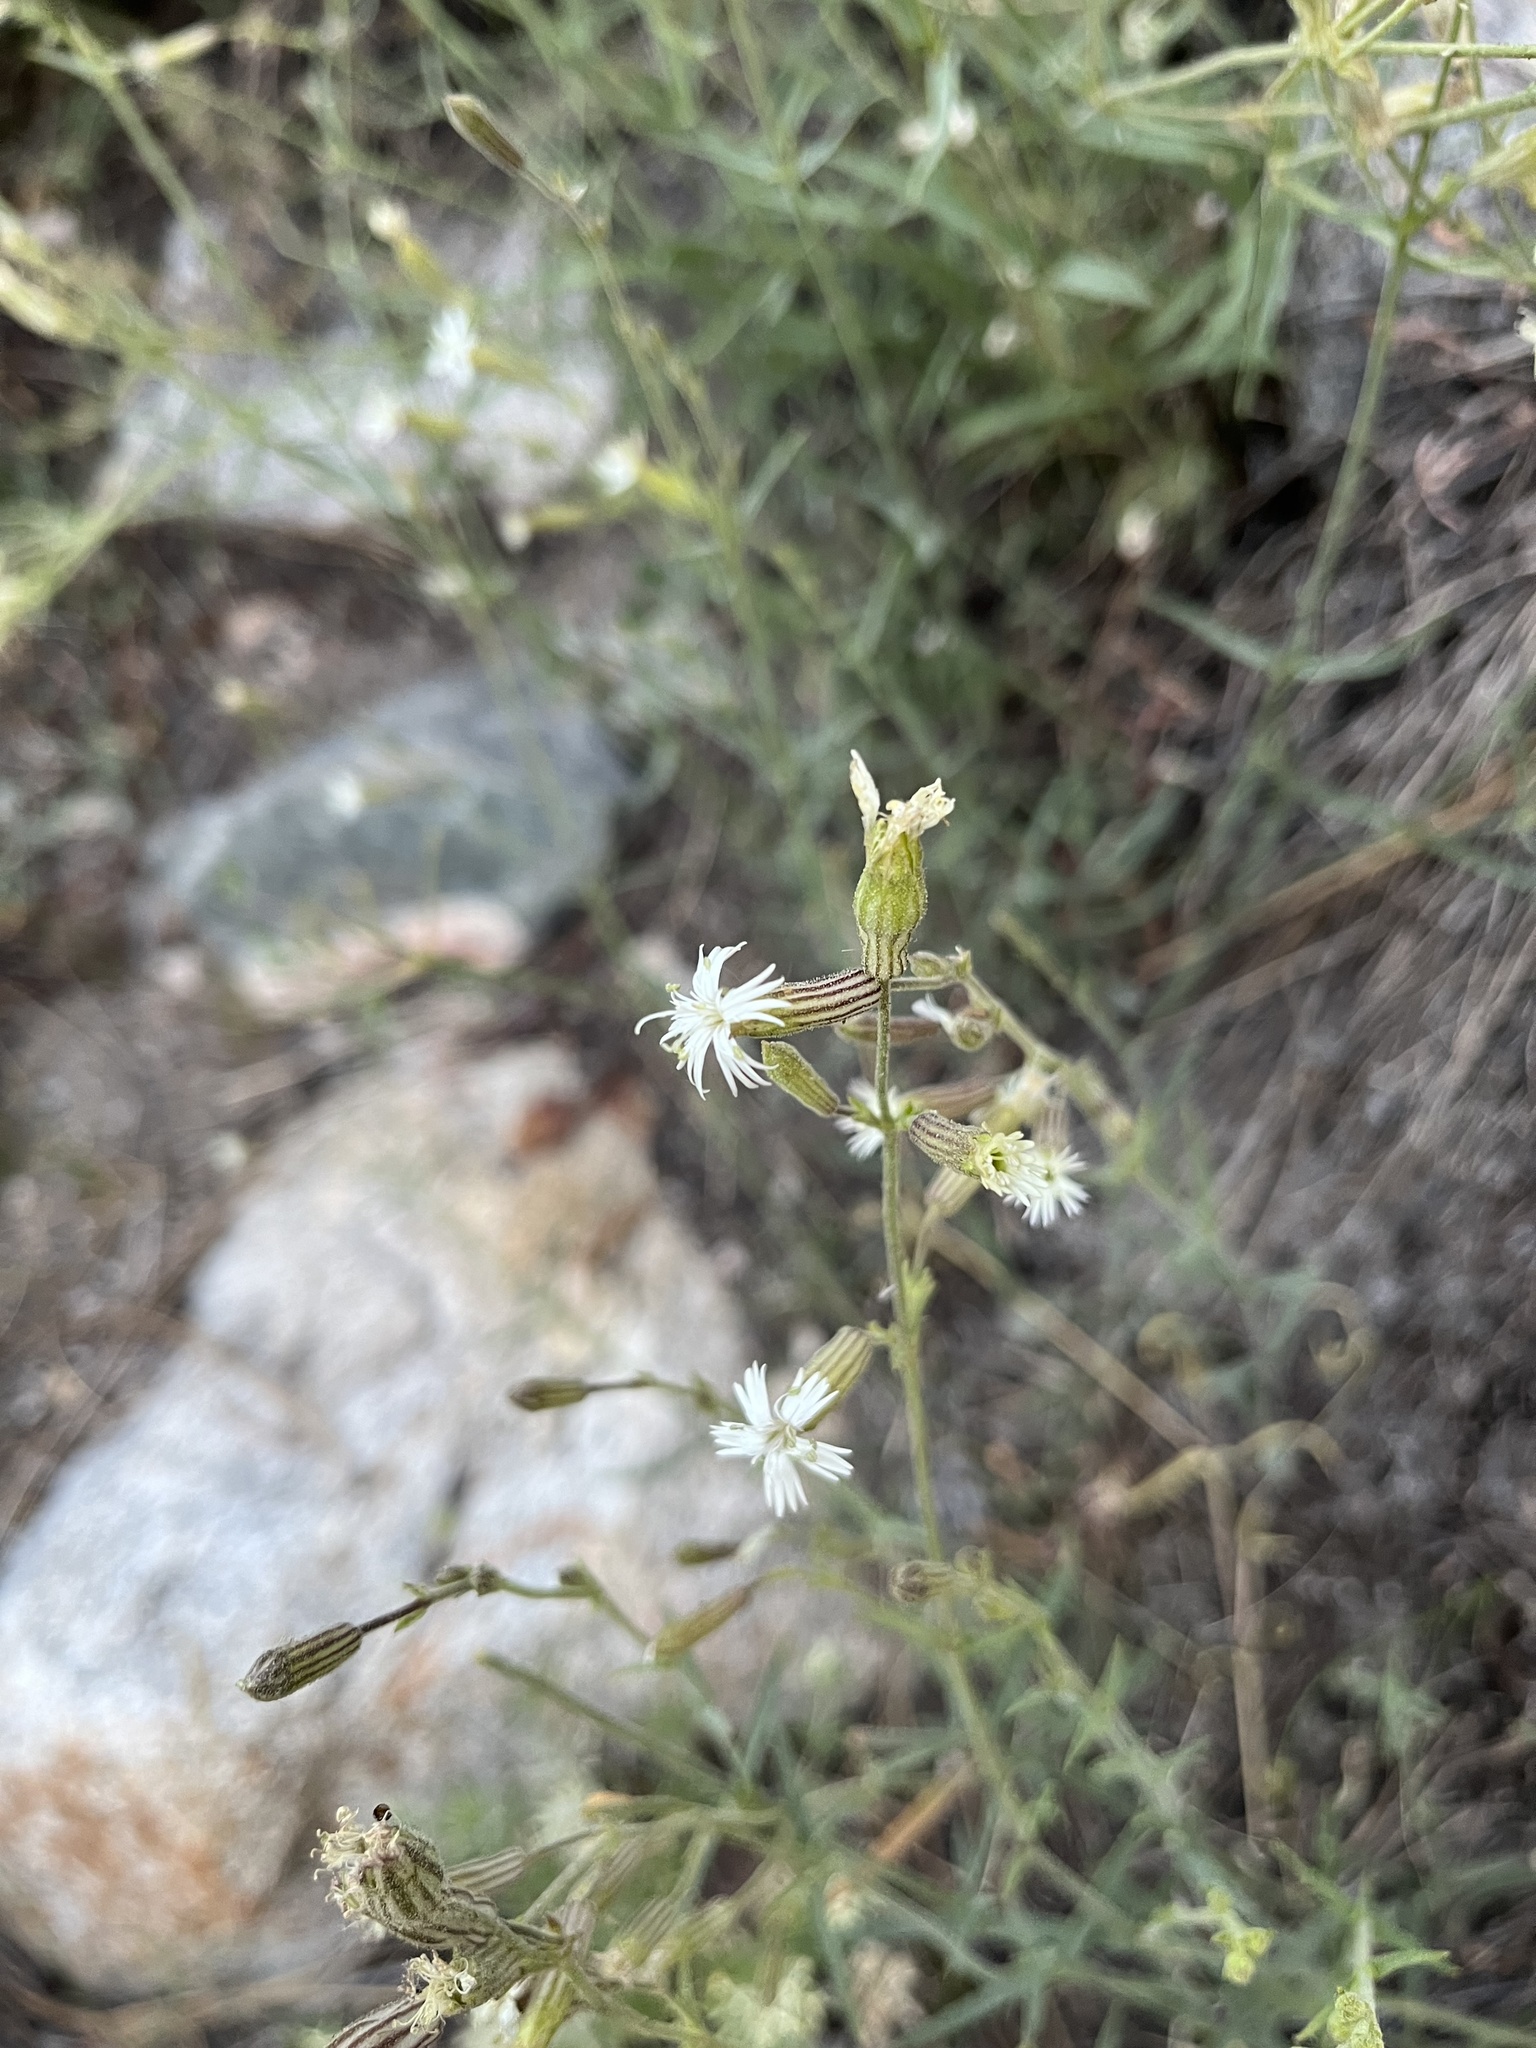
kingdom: Plantae
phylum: Tracheophyta
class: Magnoliopsida
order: Caryophyllales
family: Caryophyllaceae
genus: Silene
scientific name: Silene bernardina
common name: Palmer's catchfly
